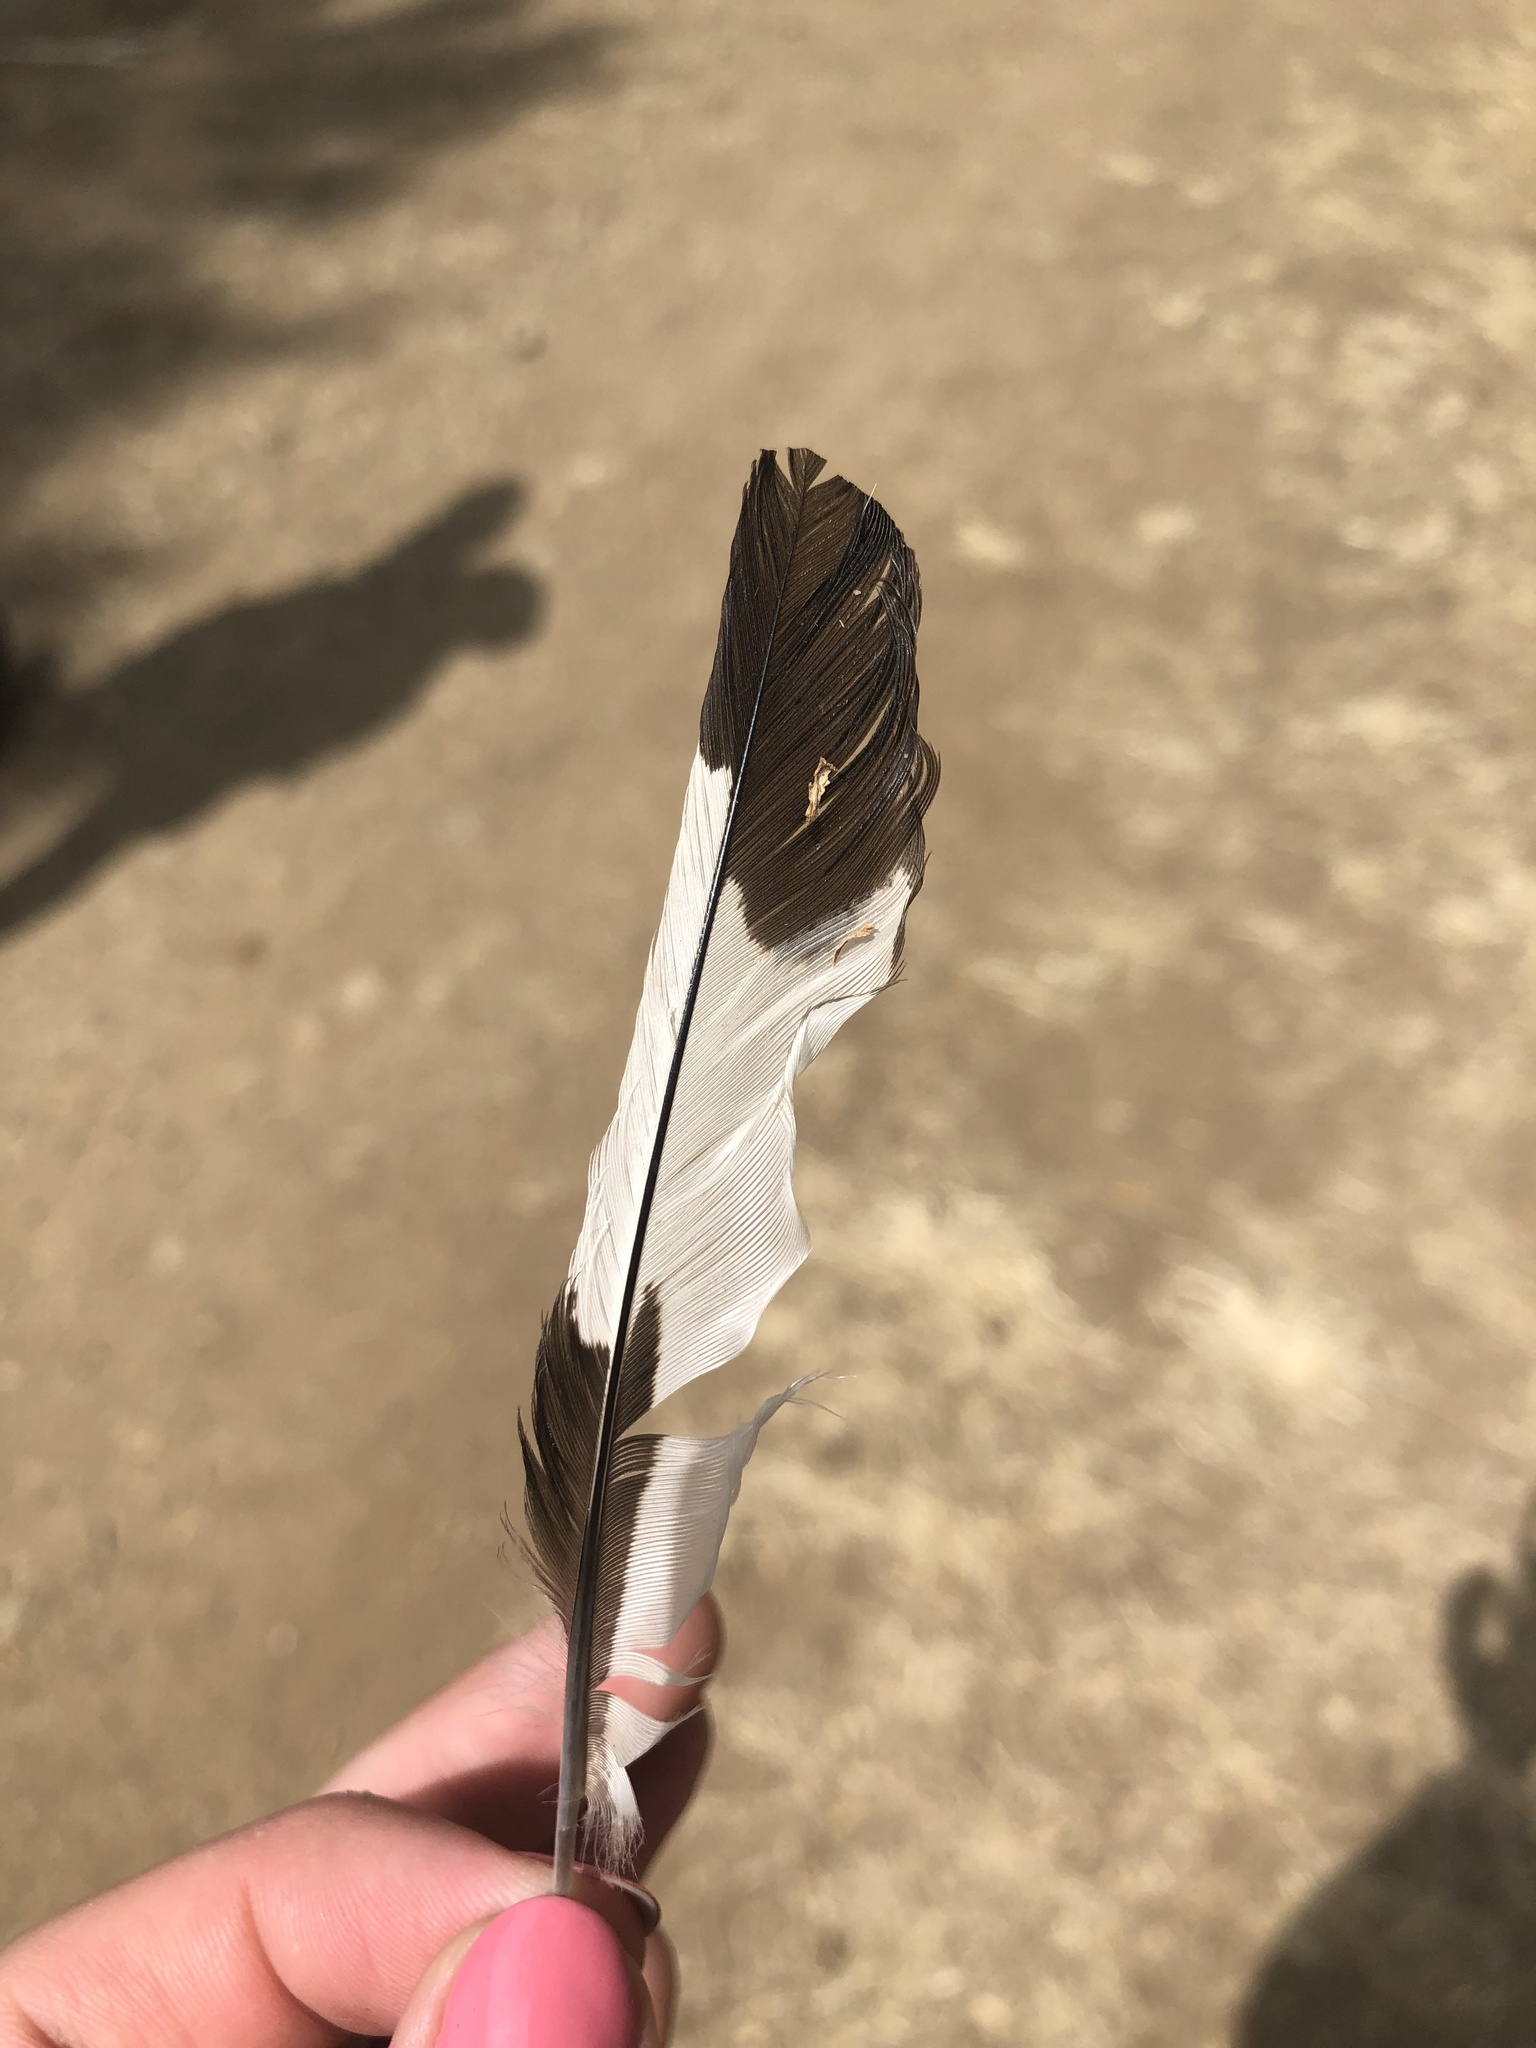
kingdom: Animalia
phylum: Chordata
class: Aves
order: Piciformes
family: Picidae
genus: Melanerpes
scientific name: Melanerpes formicivorus
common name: Acorn woodpecker
